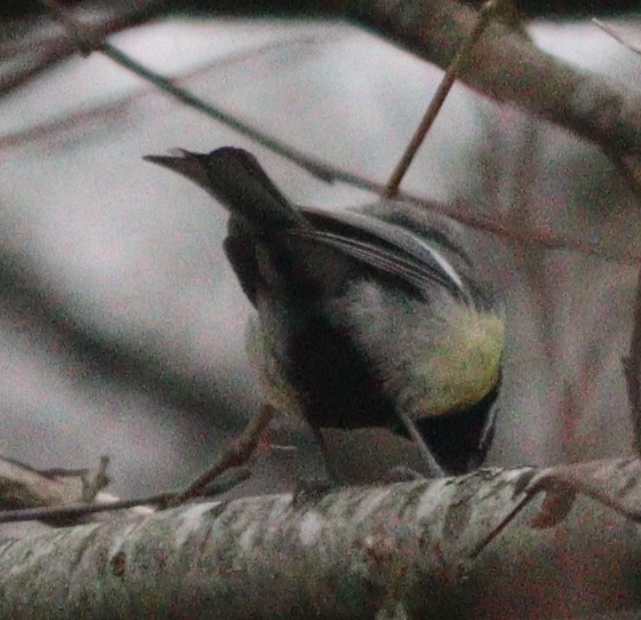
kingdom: Animalia
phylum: Chordata
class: Aves
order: Passeriformes
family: Paridae
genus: Parus
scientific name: Parus major
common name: Great tit
